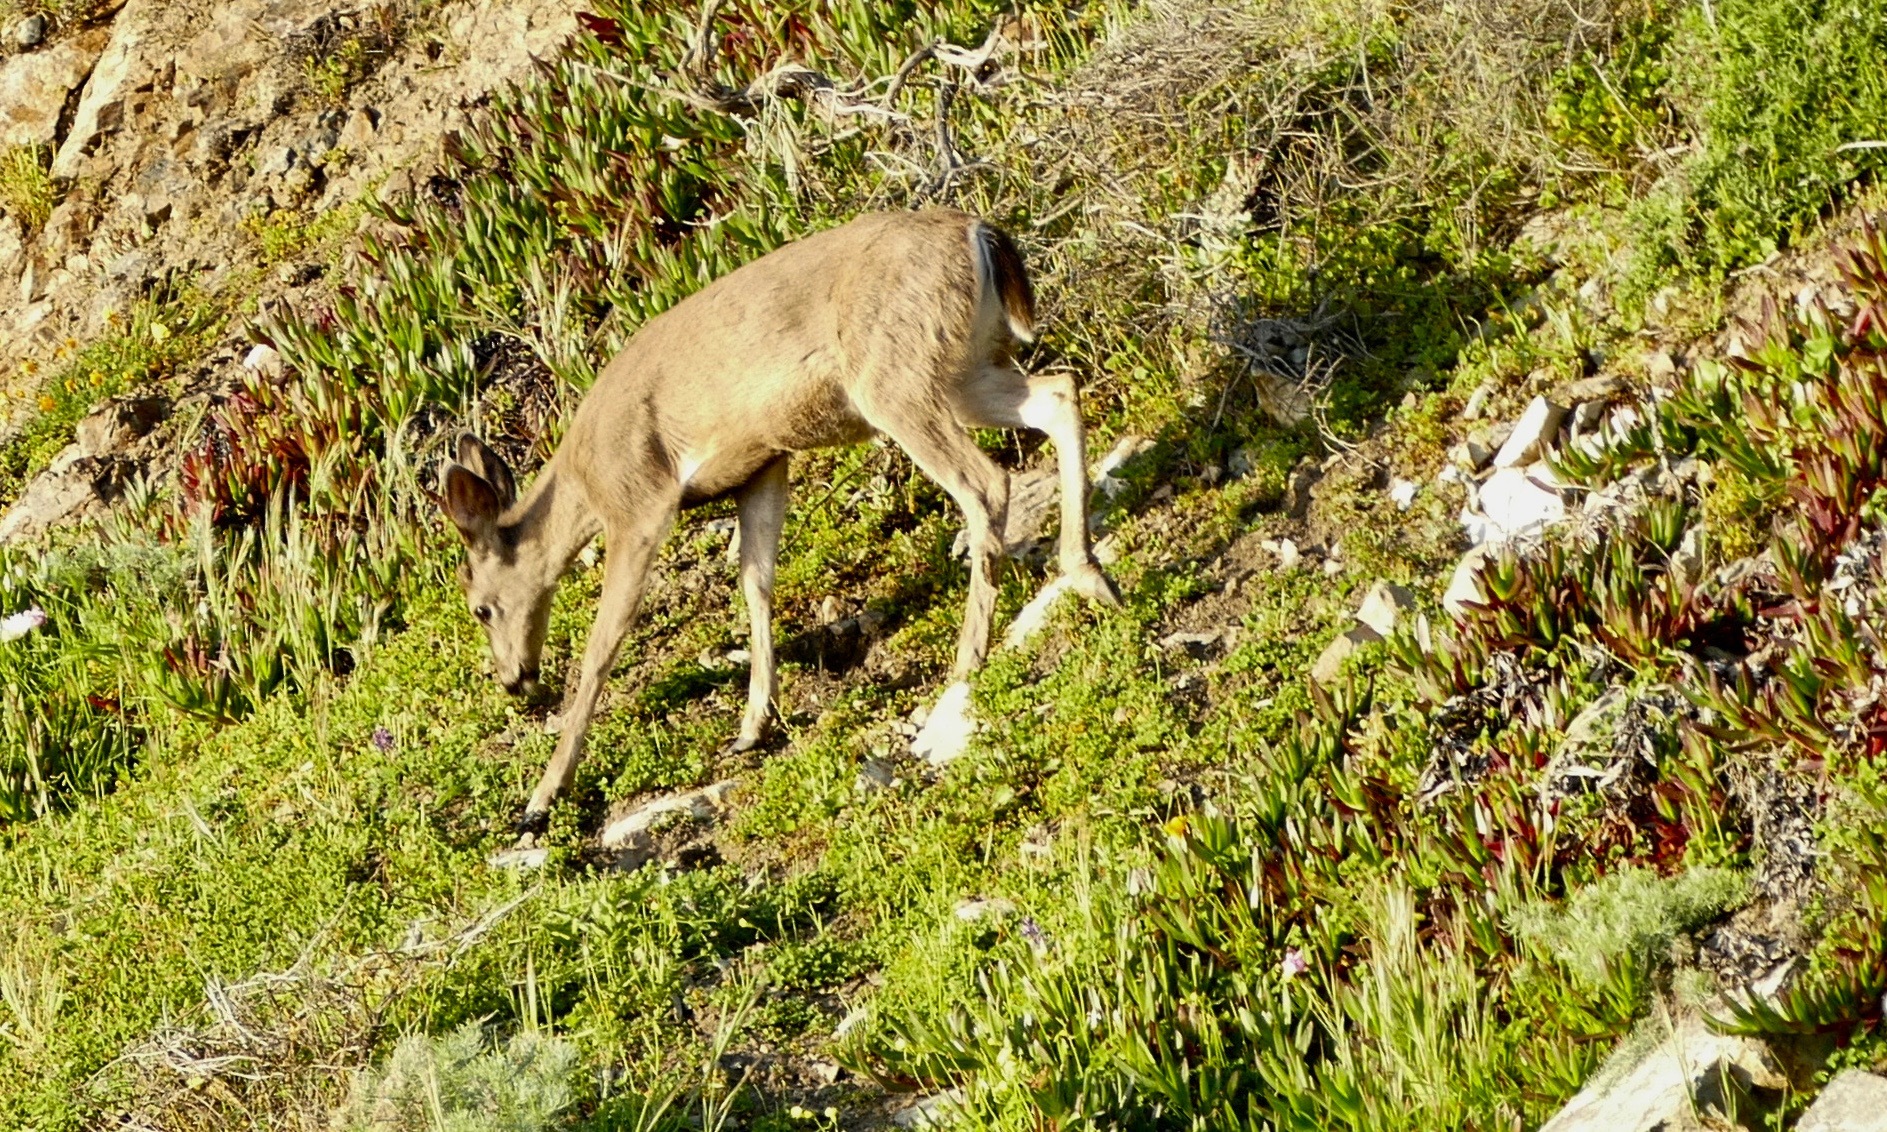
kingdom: Animalia
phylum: Chordata
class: Mammalia
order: Artiodactyla
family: Cervidae
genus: Odocoileus
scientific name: Odocoileus hemionus
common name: Mule deer
